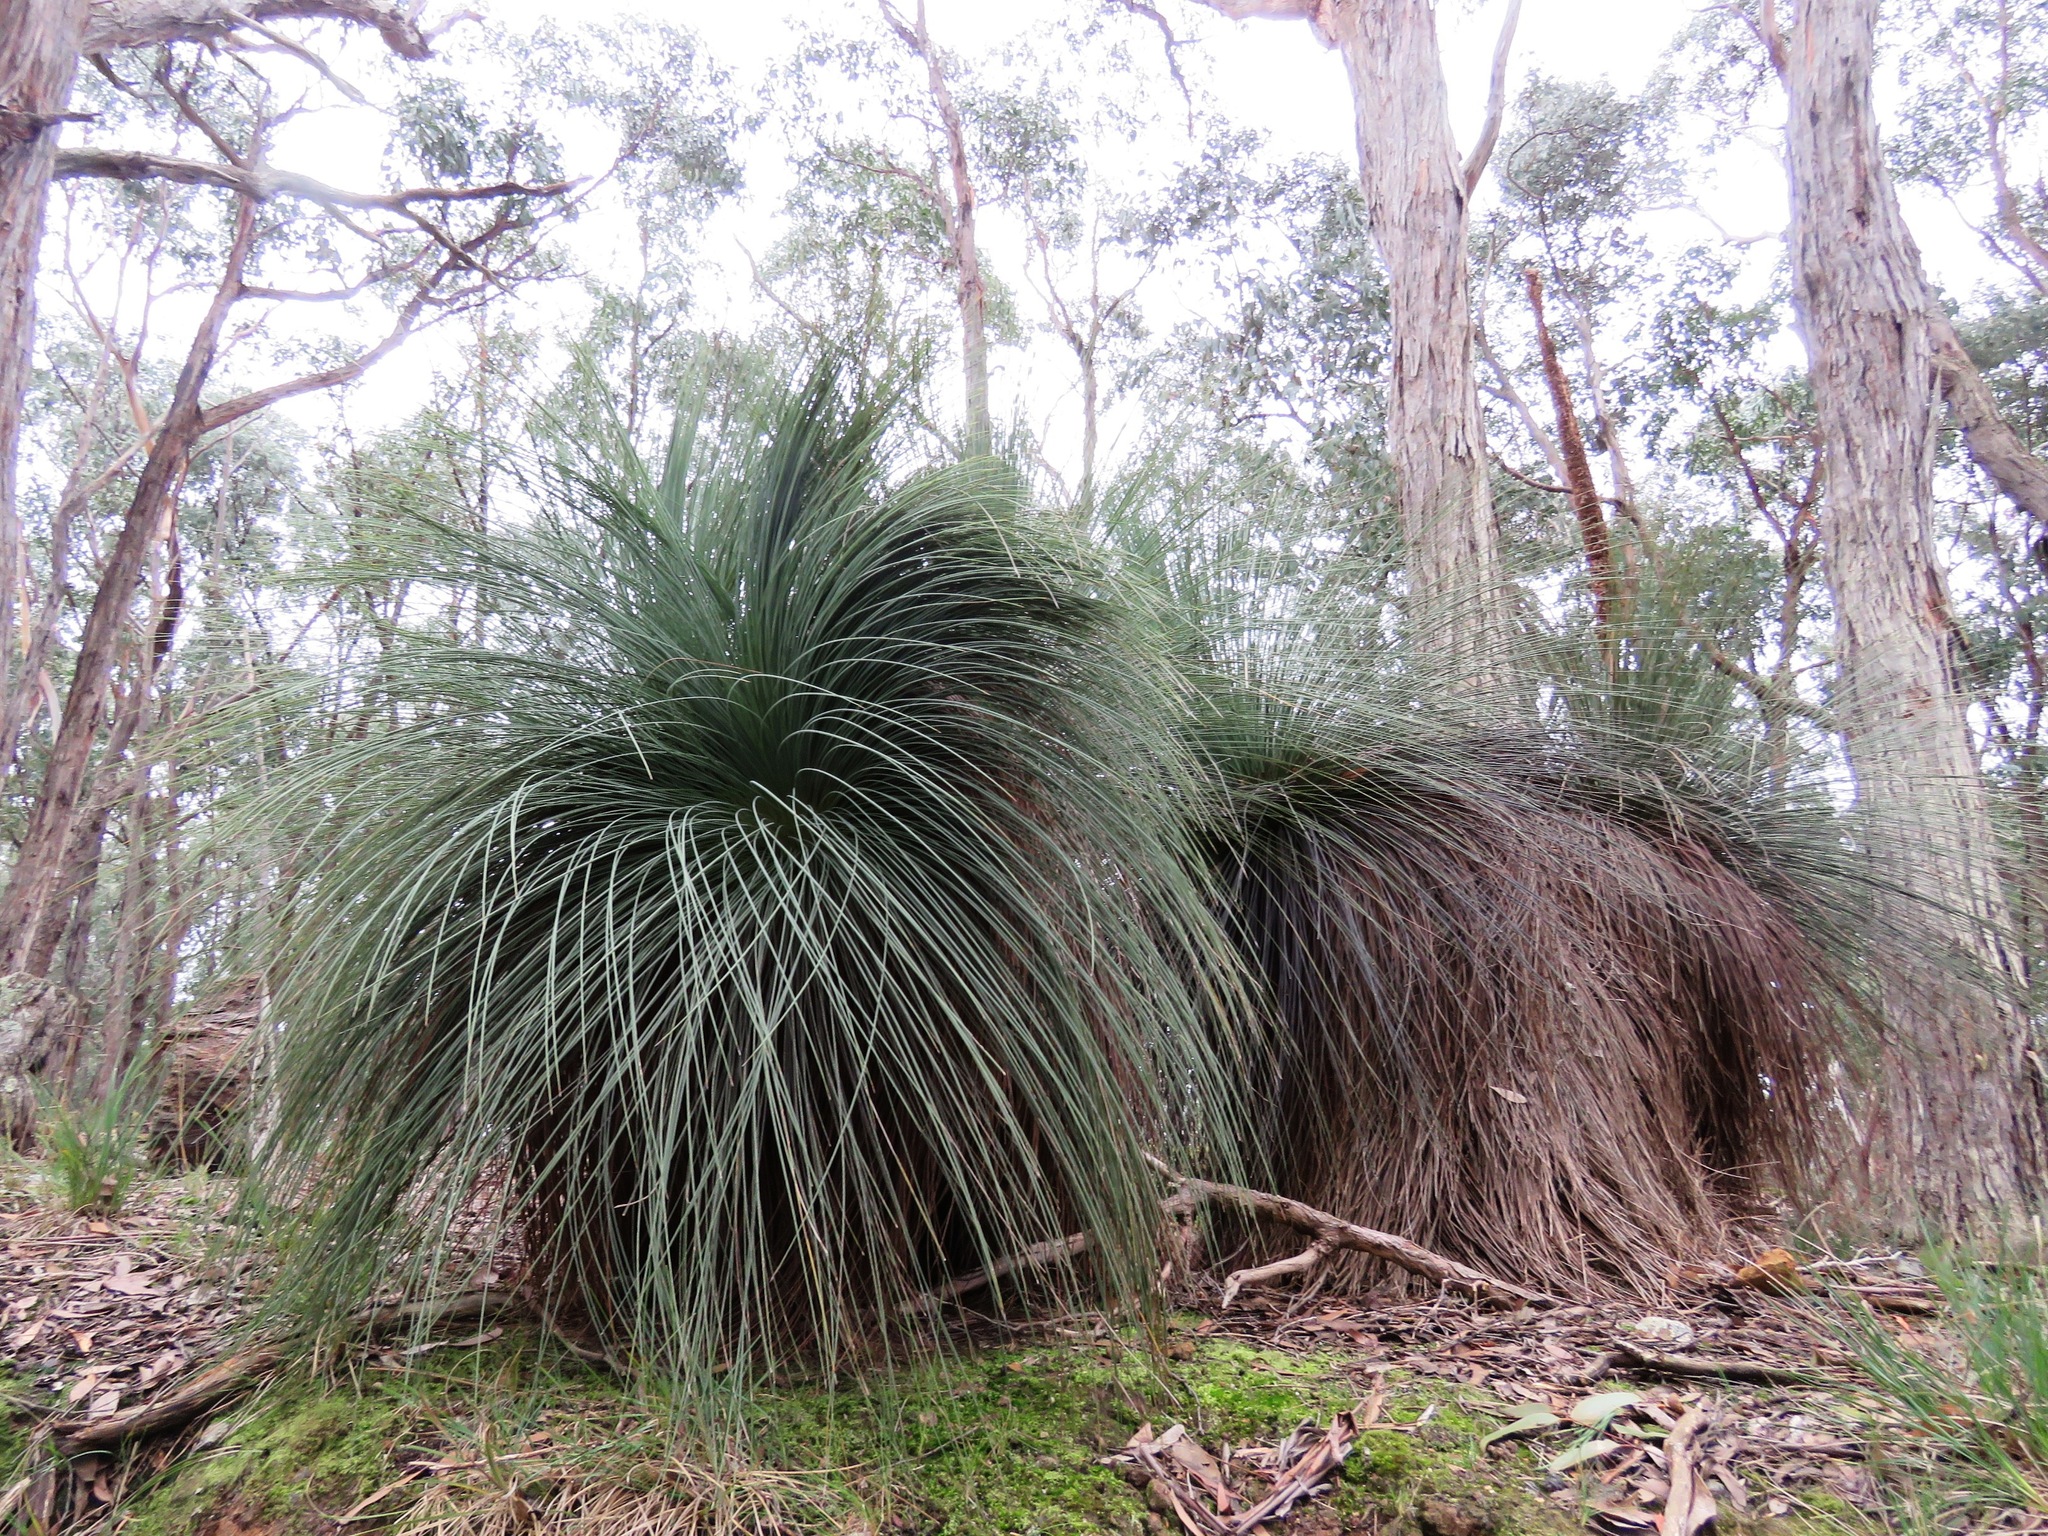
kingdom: Plantae
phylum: Tracheophyta
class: Liliopsida
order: Asparagales
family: Asphodelaceae
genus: Xanthorrhoea
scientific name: Xanthorrhoea australis
